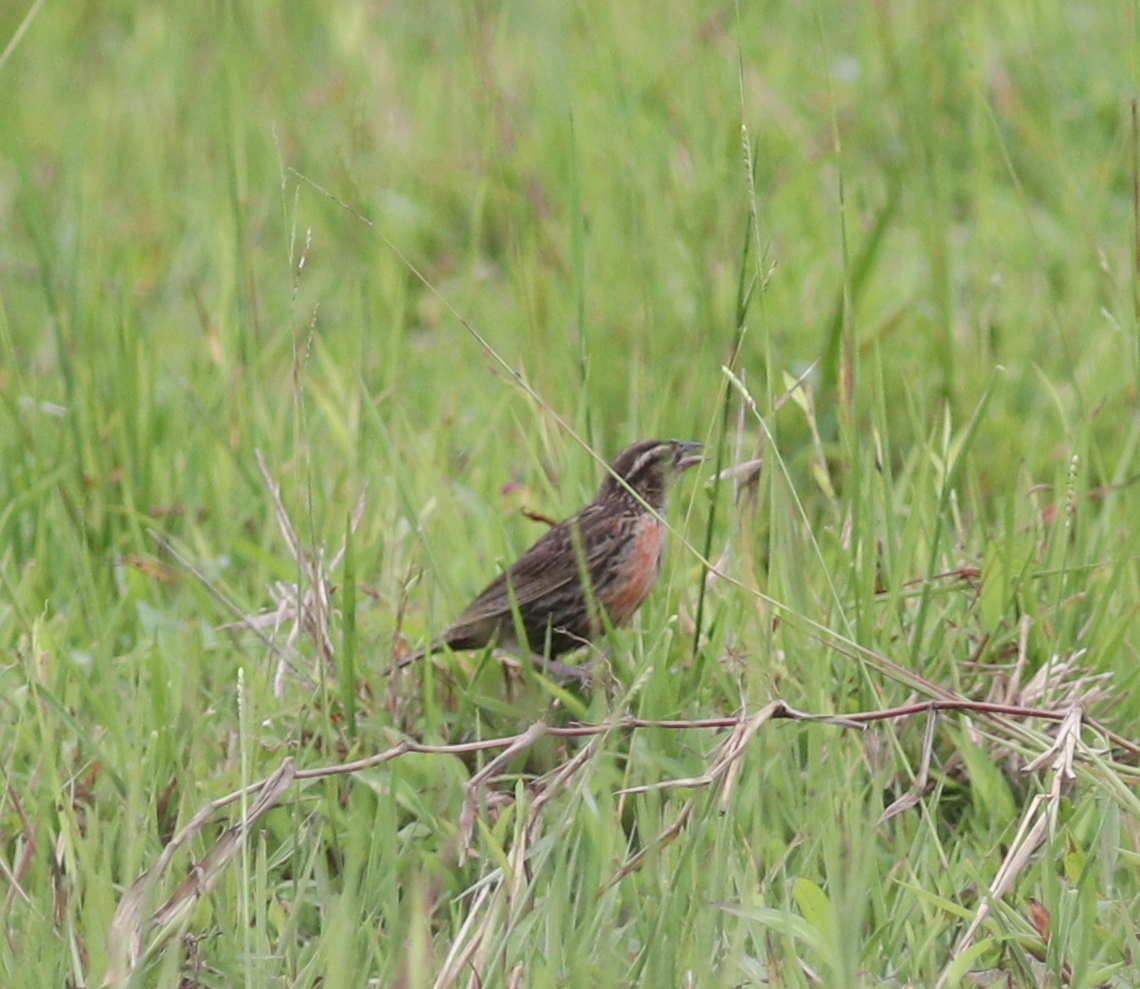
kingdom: Animalia
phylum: Chordata
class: Aves
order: Passeriformes
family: Icteridae
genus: Sturnella
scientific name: Sturnella militaris
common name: Red-breasted blackbird
